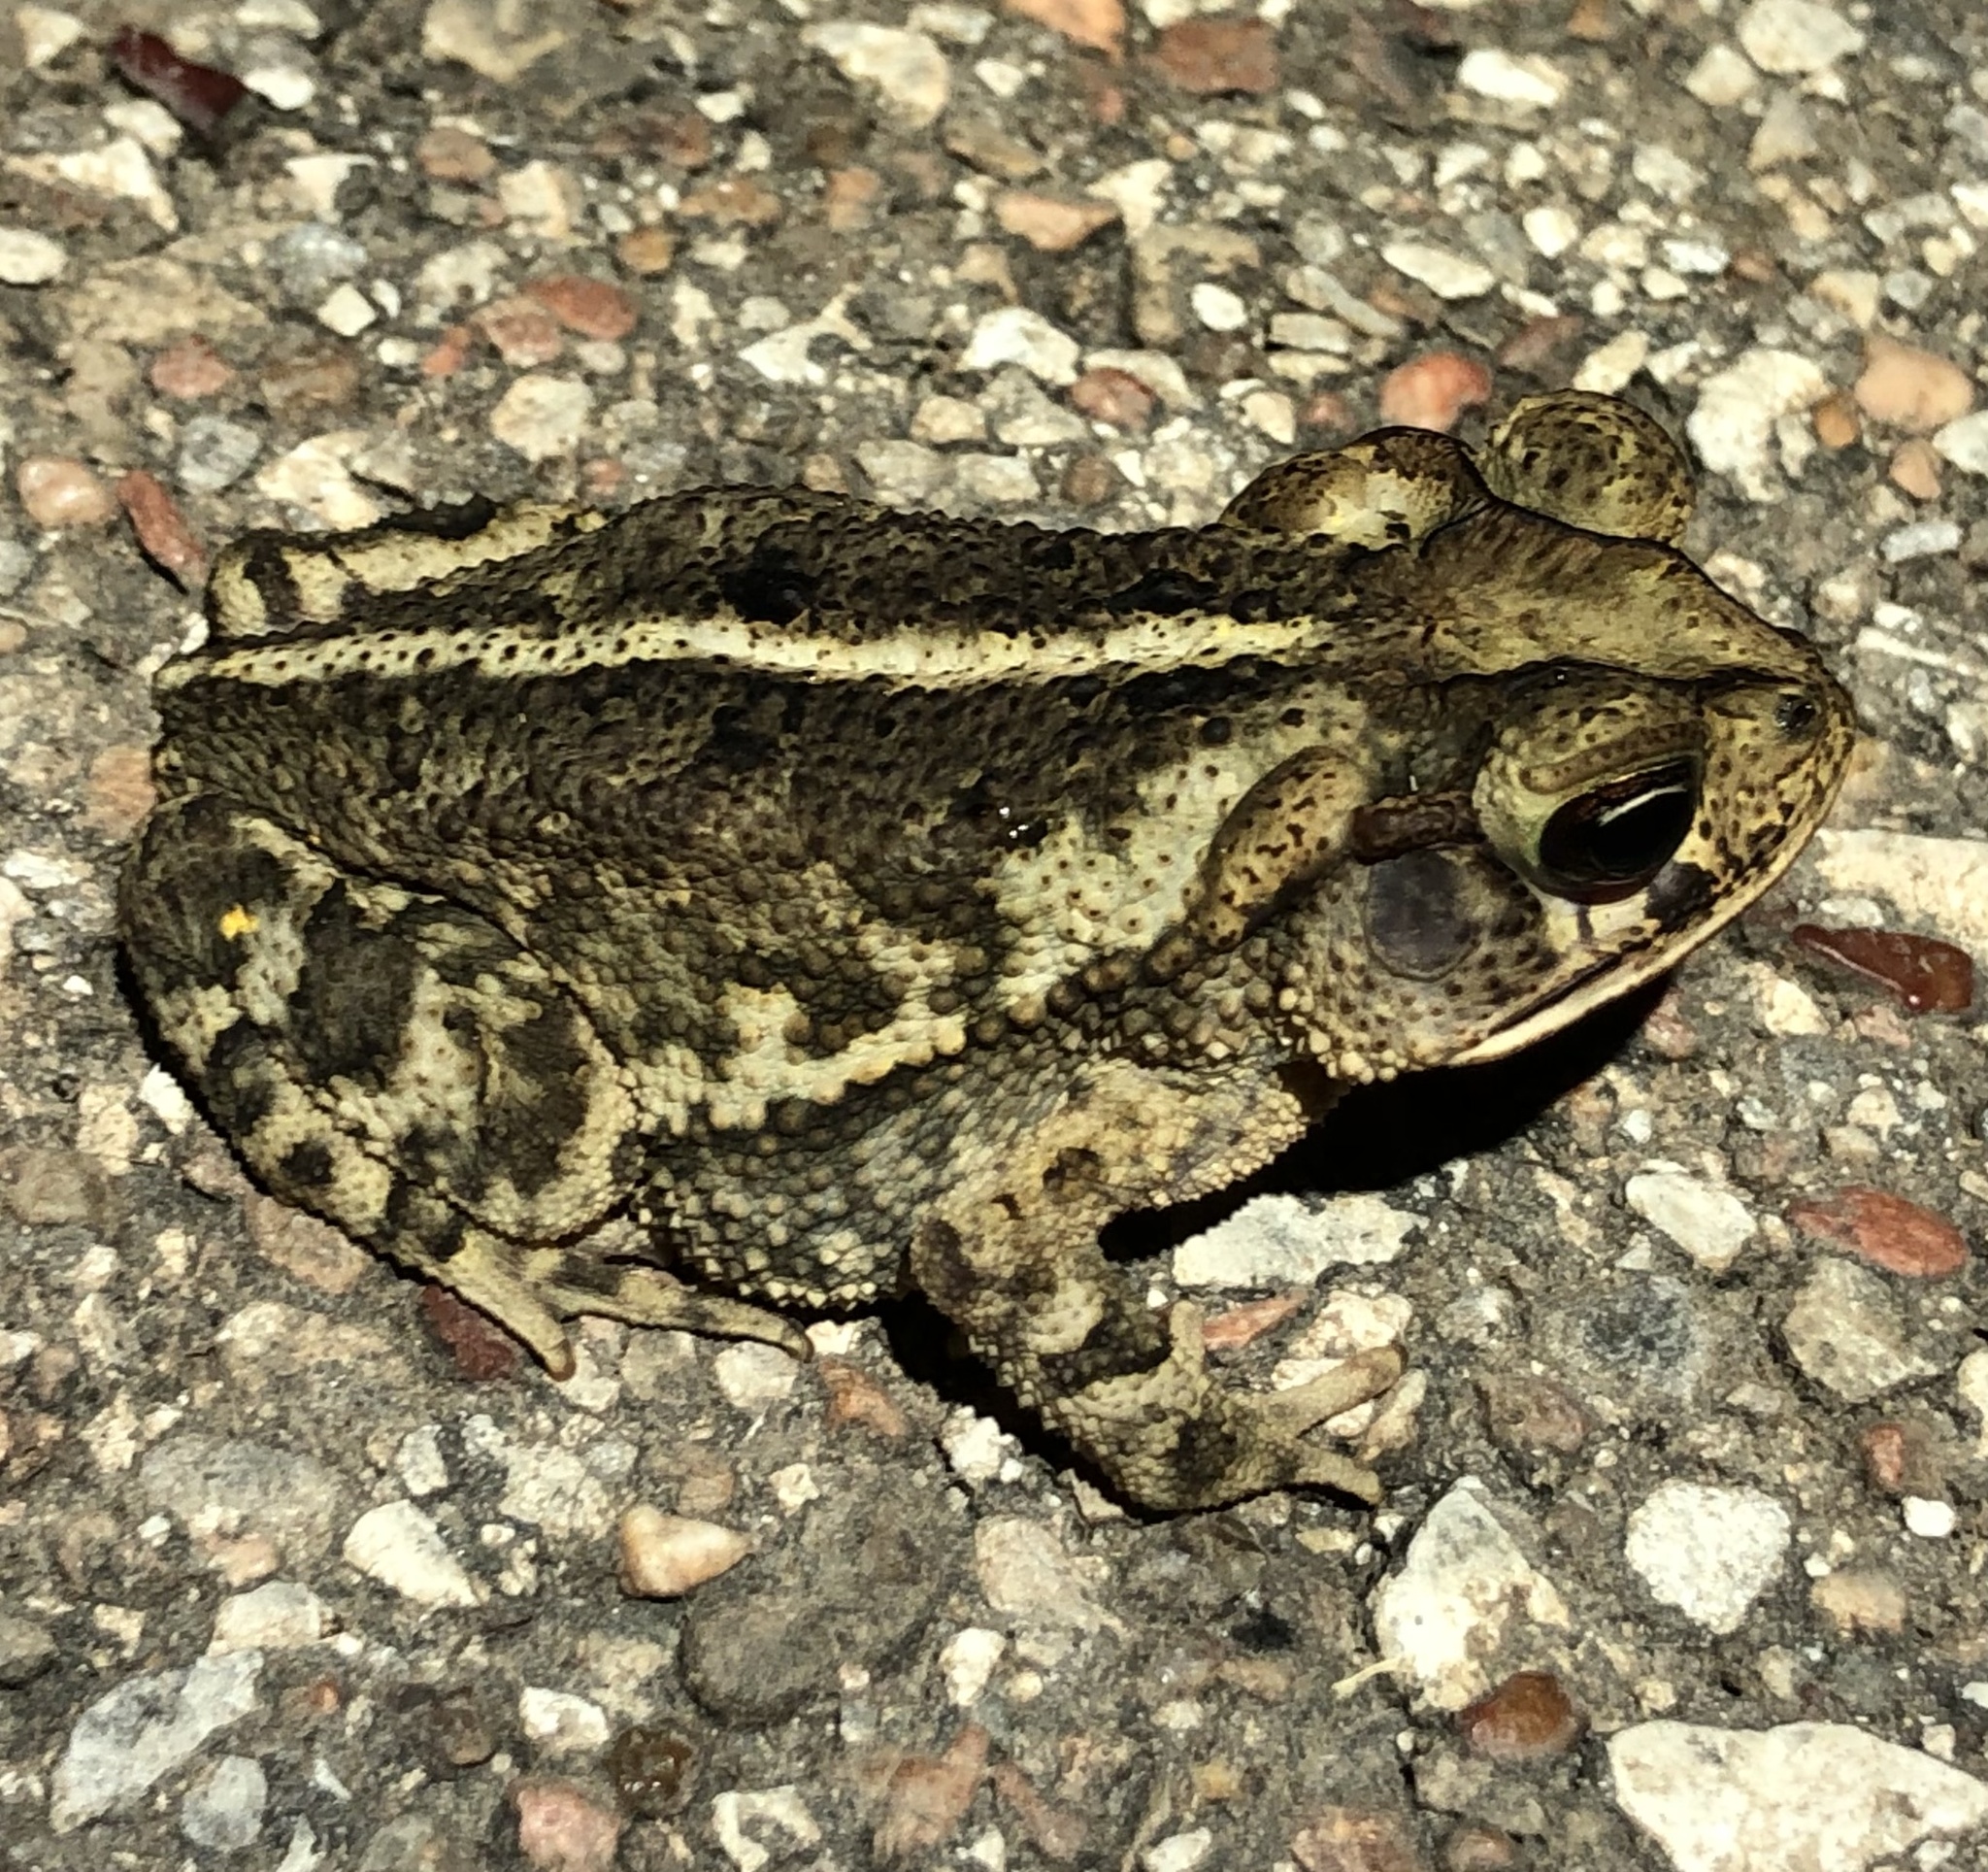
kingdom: Animalia
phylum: Chordata
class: Amphibia
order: Anura
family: Bufonidae
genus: Incilius
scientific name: Incilius nebulifer
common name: Gulf coast toad
